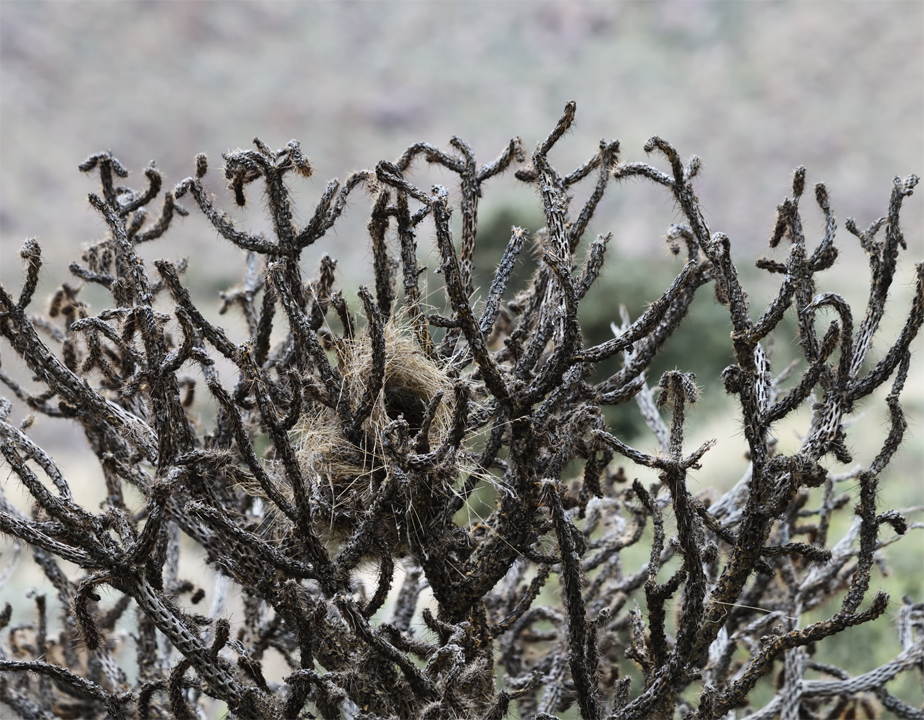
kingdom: Animalia
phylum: Chordata
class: Aves
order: Passeriformes
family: Troglodytidae
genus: Campylorhynchus
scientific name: Campylorhynchus brunneicapillus
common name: Cactus wren
